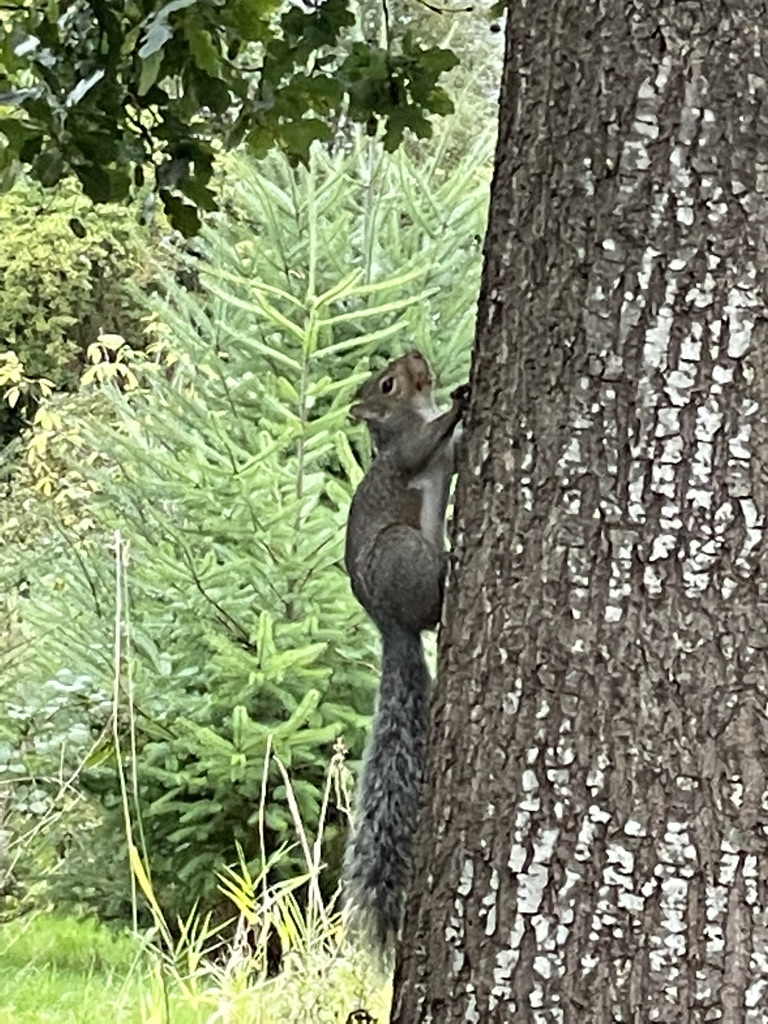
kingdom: Animalia
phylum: Chordata
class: Mammalia
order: Rodentia
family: Sciuridae
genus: Sciurus
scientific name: Sciurus carolinensis
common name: Eastern gray squirrel
